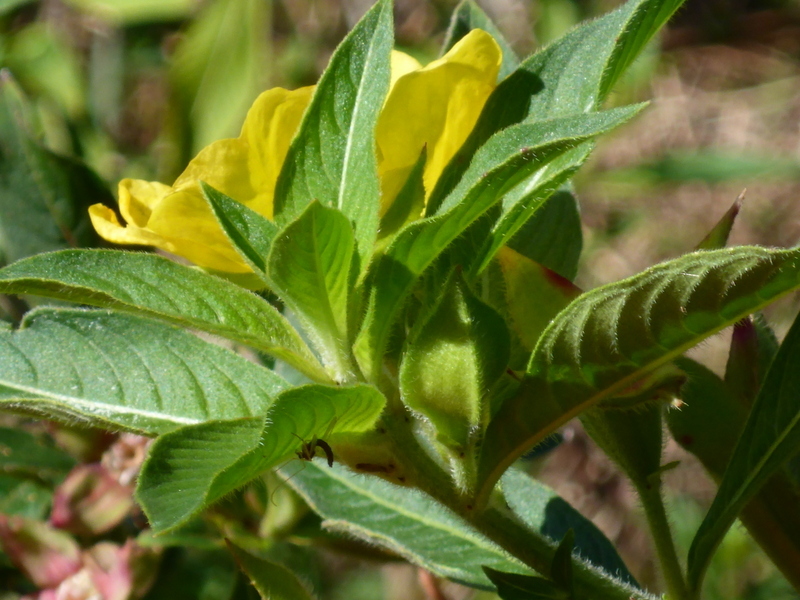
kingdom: Plantae
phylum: Tracheophyta
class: Magnoliopsida
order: Myrtales
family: Onagraceae
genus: Ludwigia
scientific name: Ludwigia peruviana
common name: Peruvian primrose-willow
